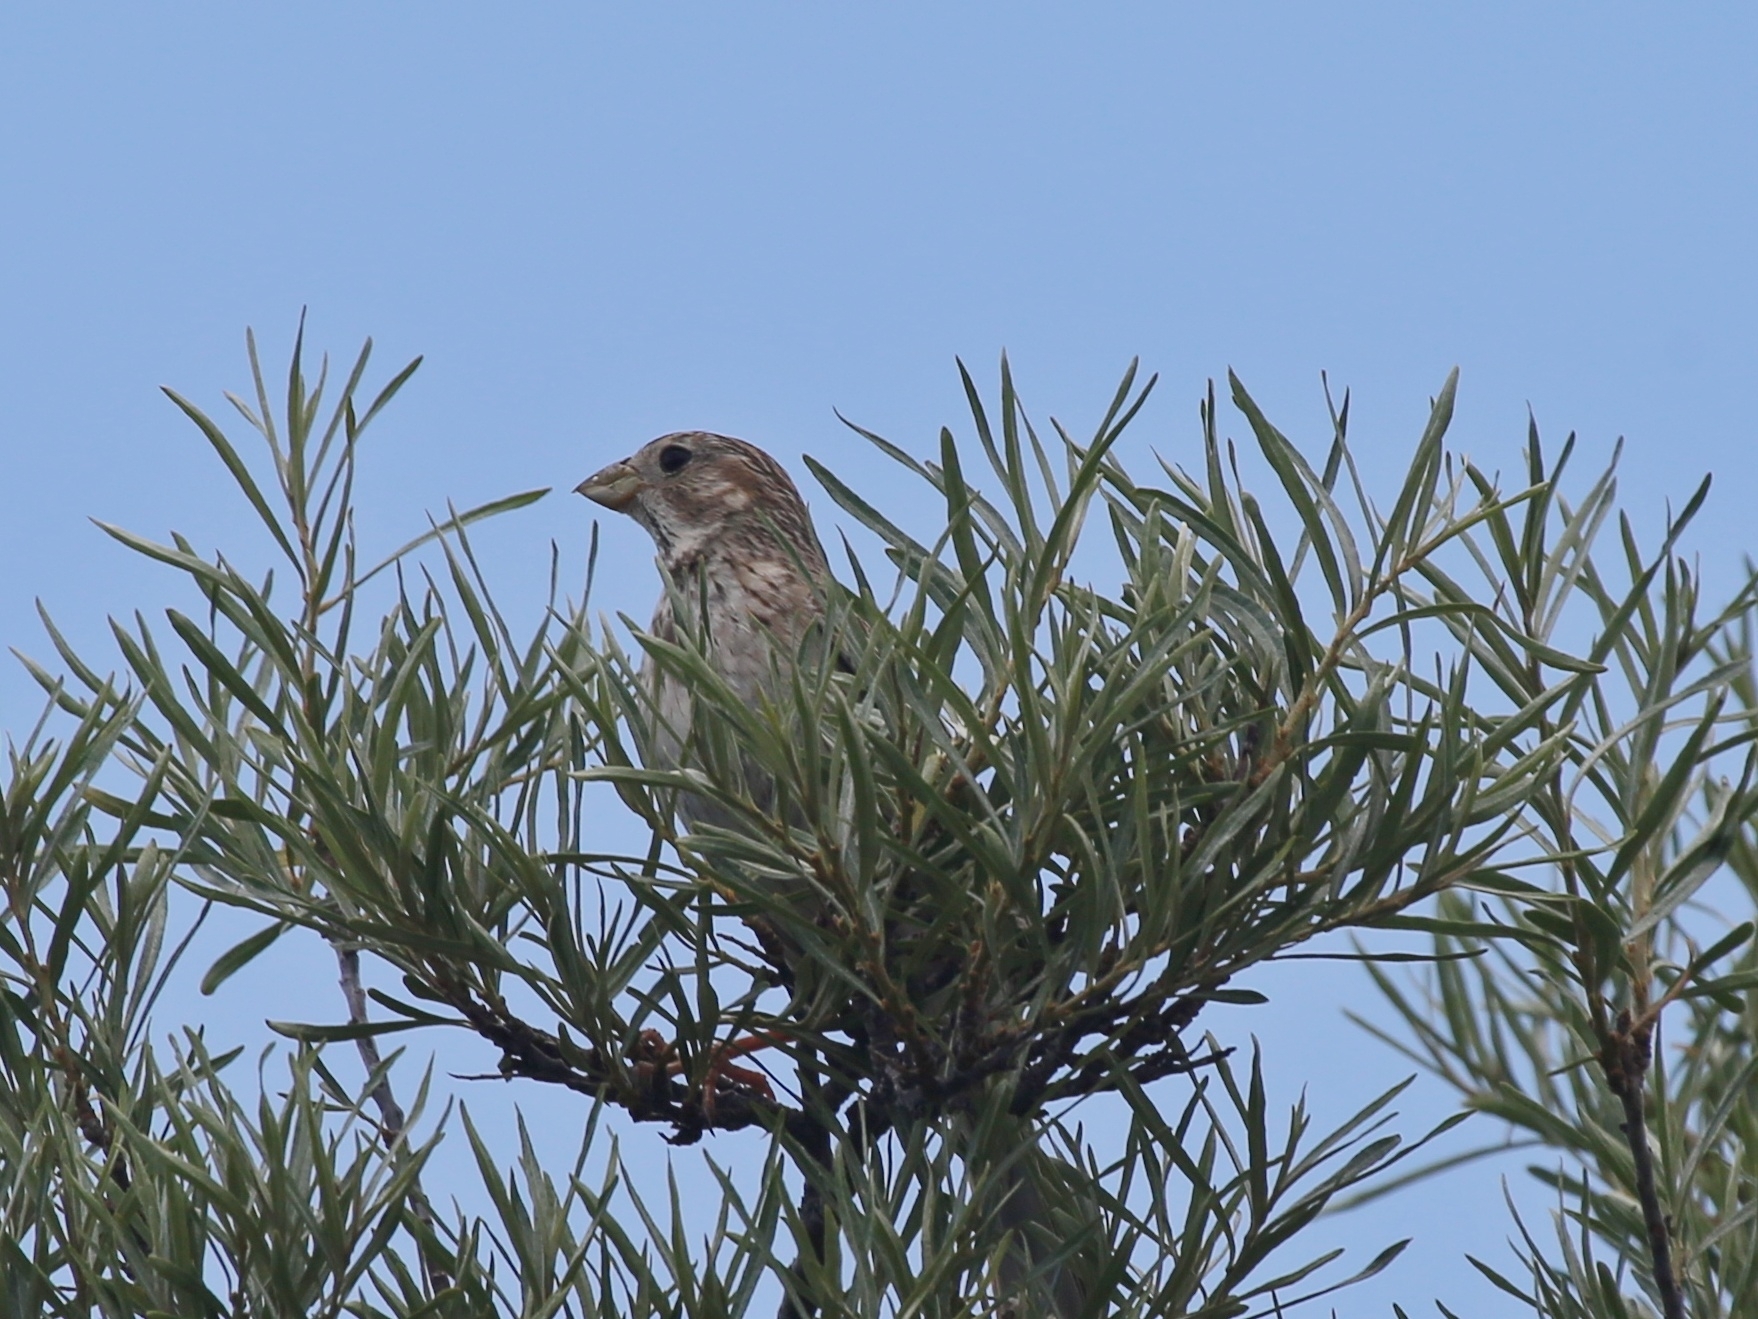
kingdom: Animalia
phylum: Chordata
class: Aves
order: Passeriformes
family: Emberizidae
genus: Emberiza
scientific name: Emberiza calandra
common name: Corn bunting
